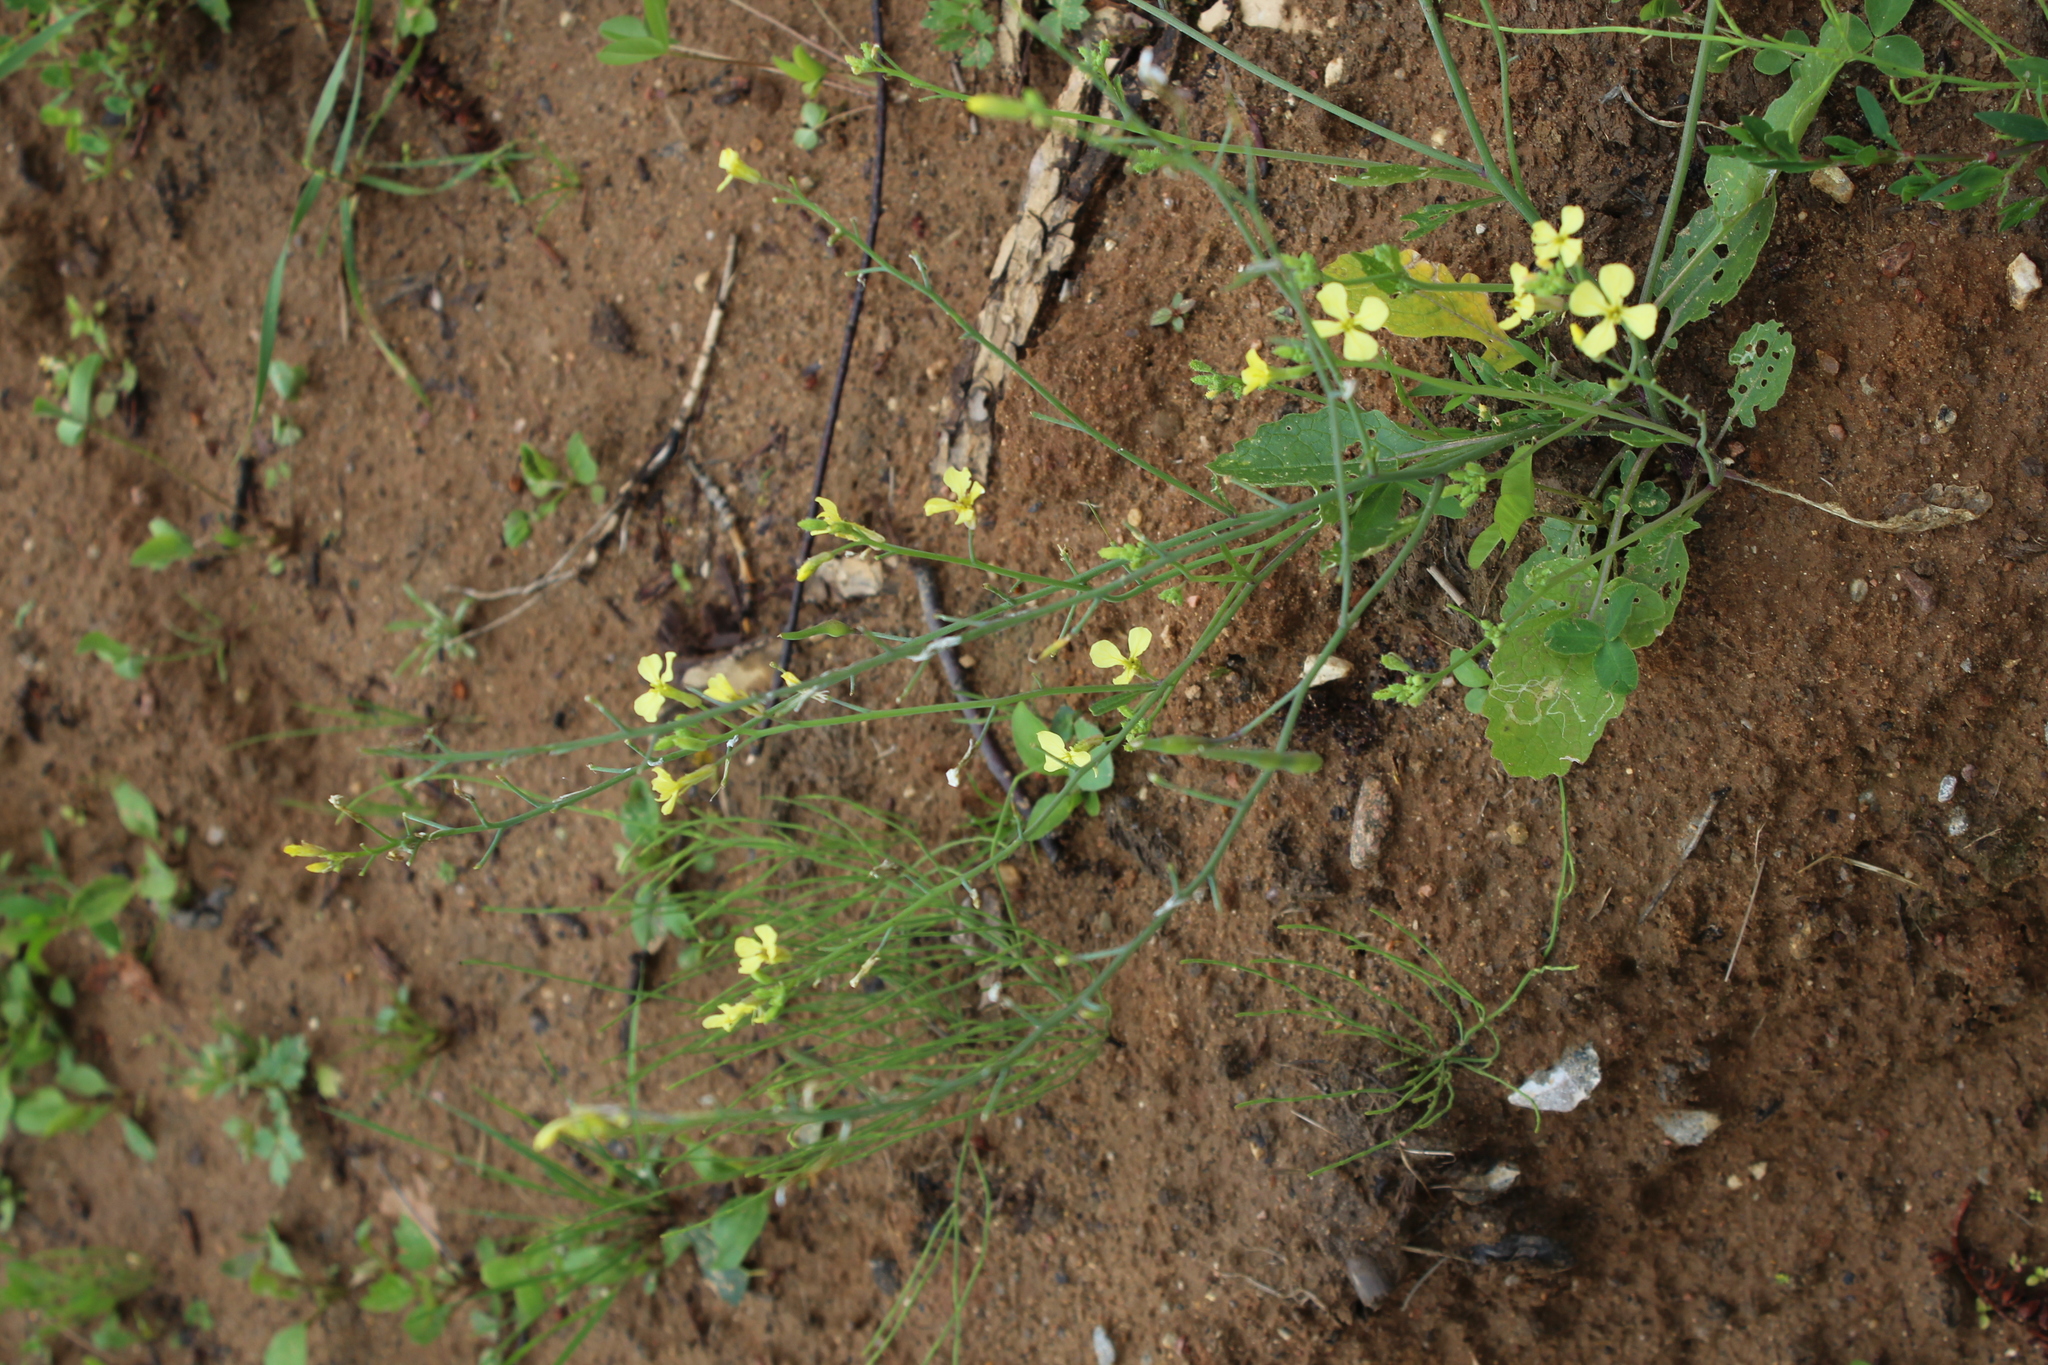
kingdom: Plantae
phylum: Tracheophyta
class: Magnoliopsida
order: Brassicales
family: Brassicaceae
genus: Raphanus
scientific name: Raphanus raphanistrum
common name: Wild radish
